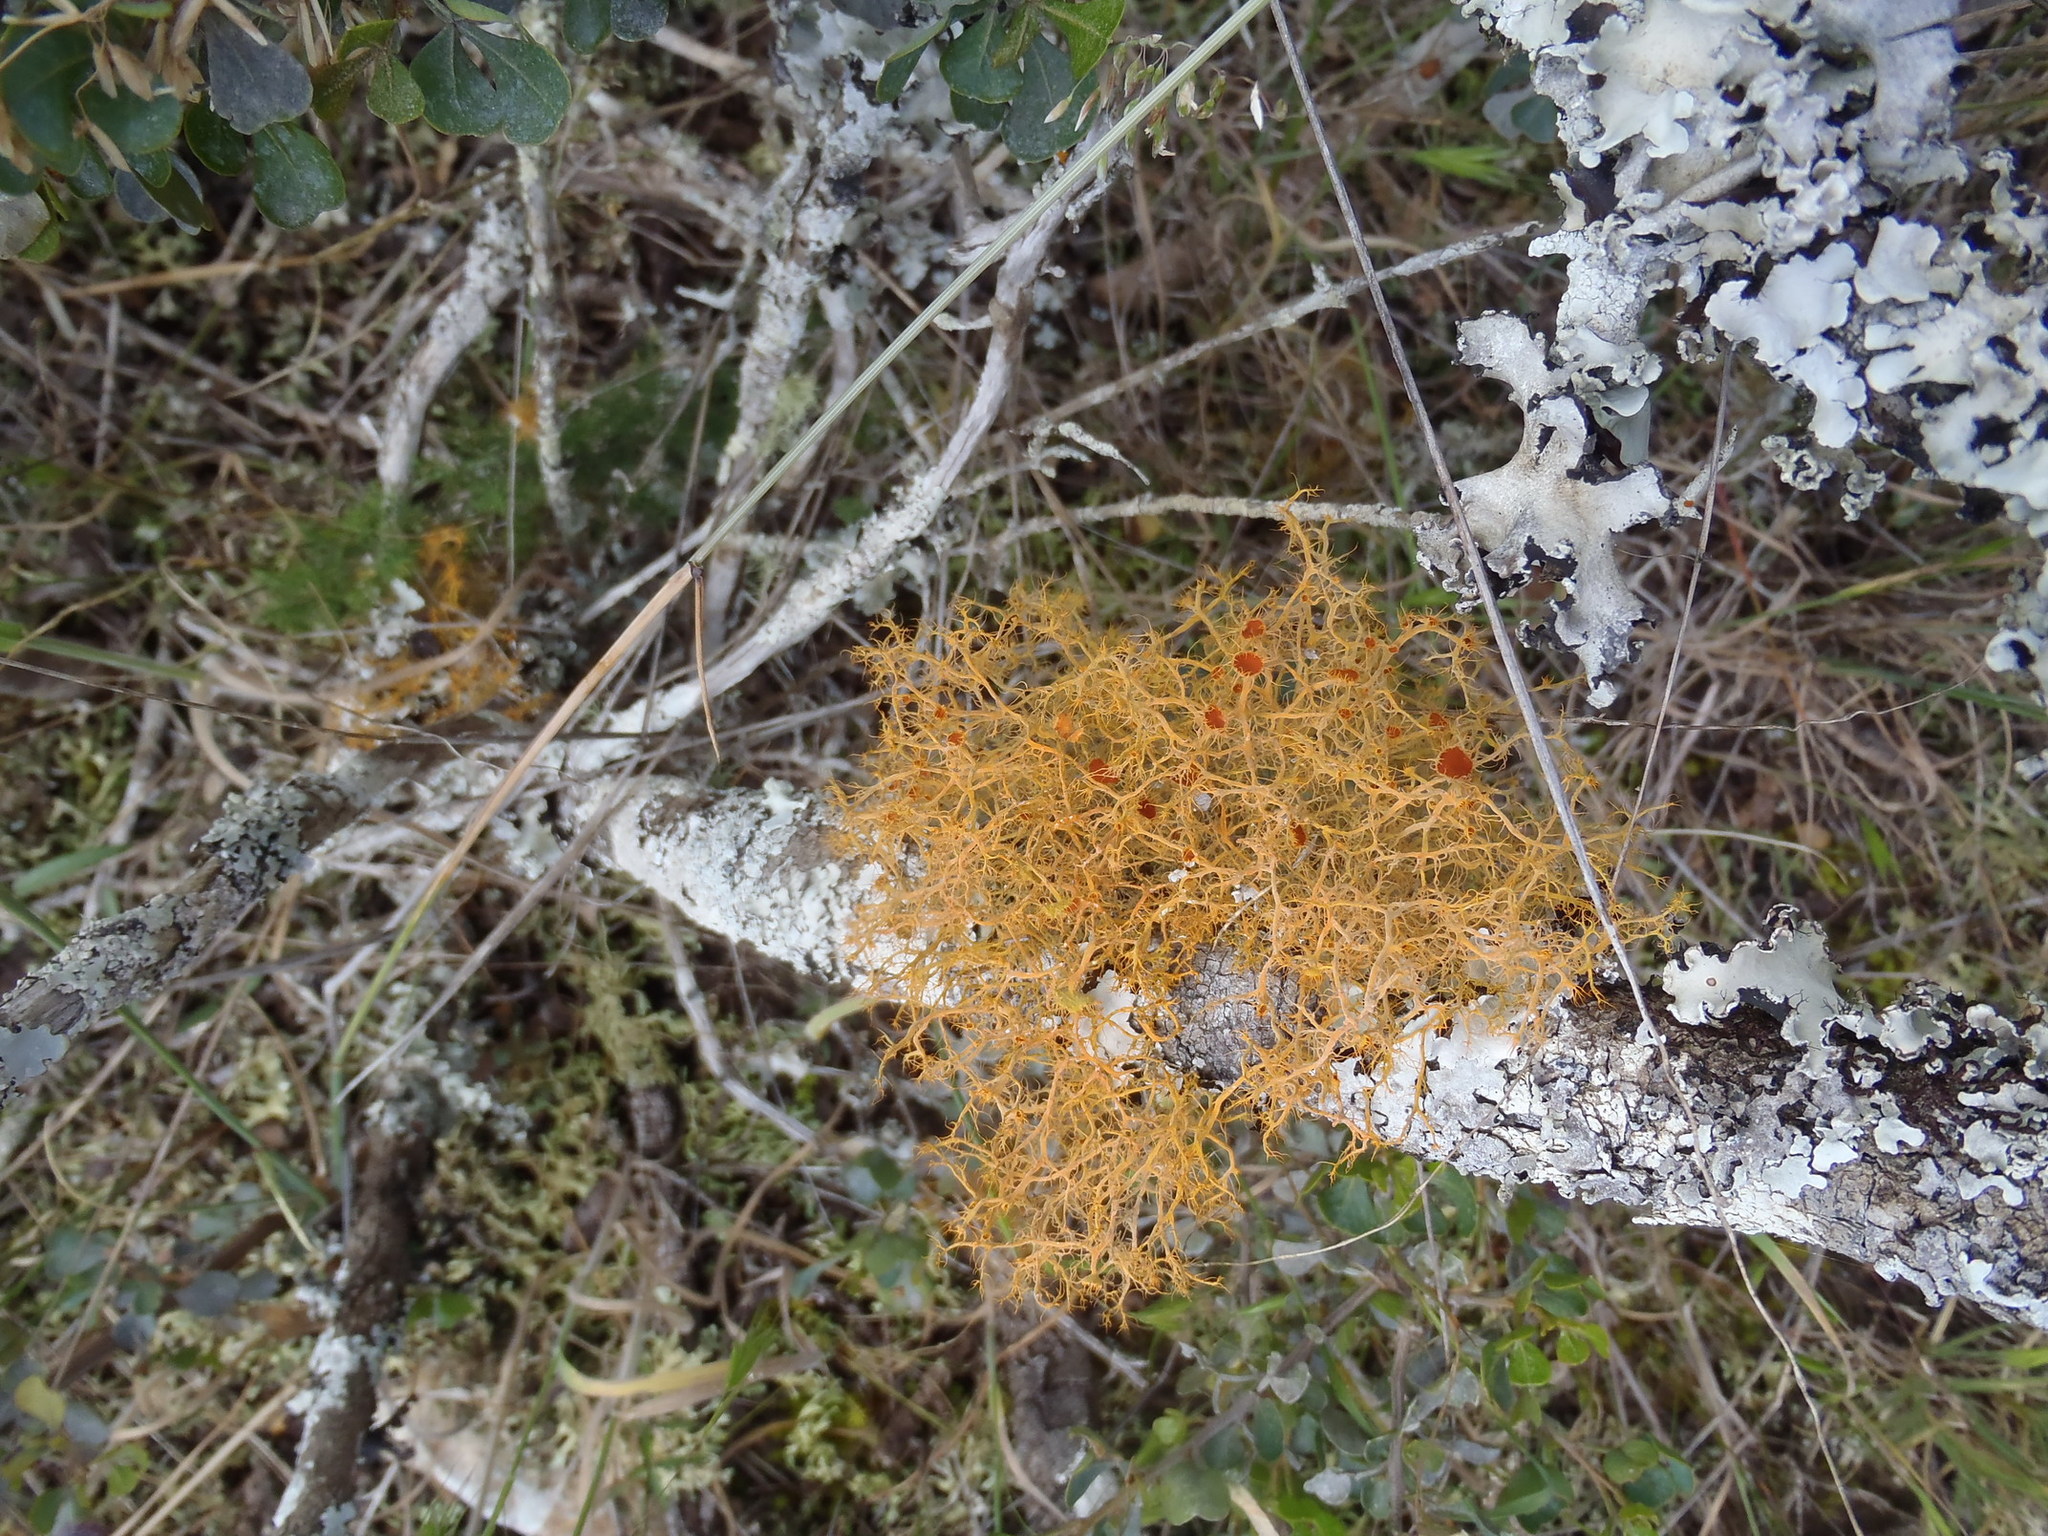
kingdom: Fungi
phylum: Ascomycota
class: Lecanoromycetes
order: Teloschistales
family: Teloschistaceae
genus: Teloschistes
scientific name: Teloschistes capensis
